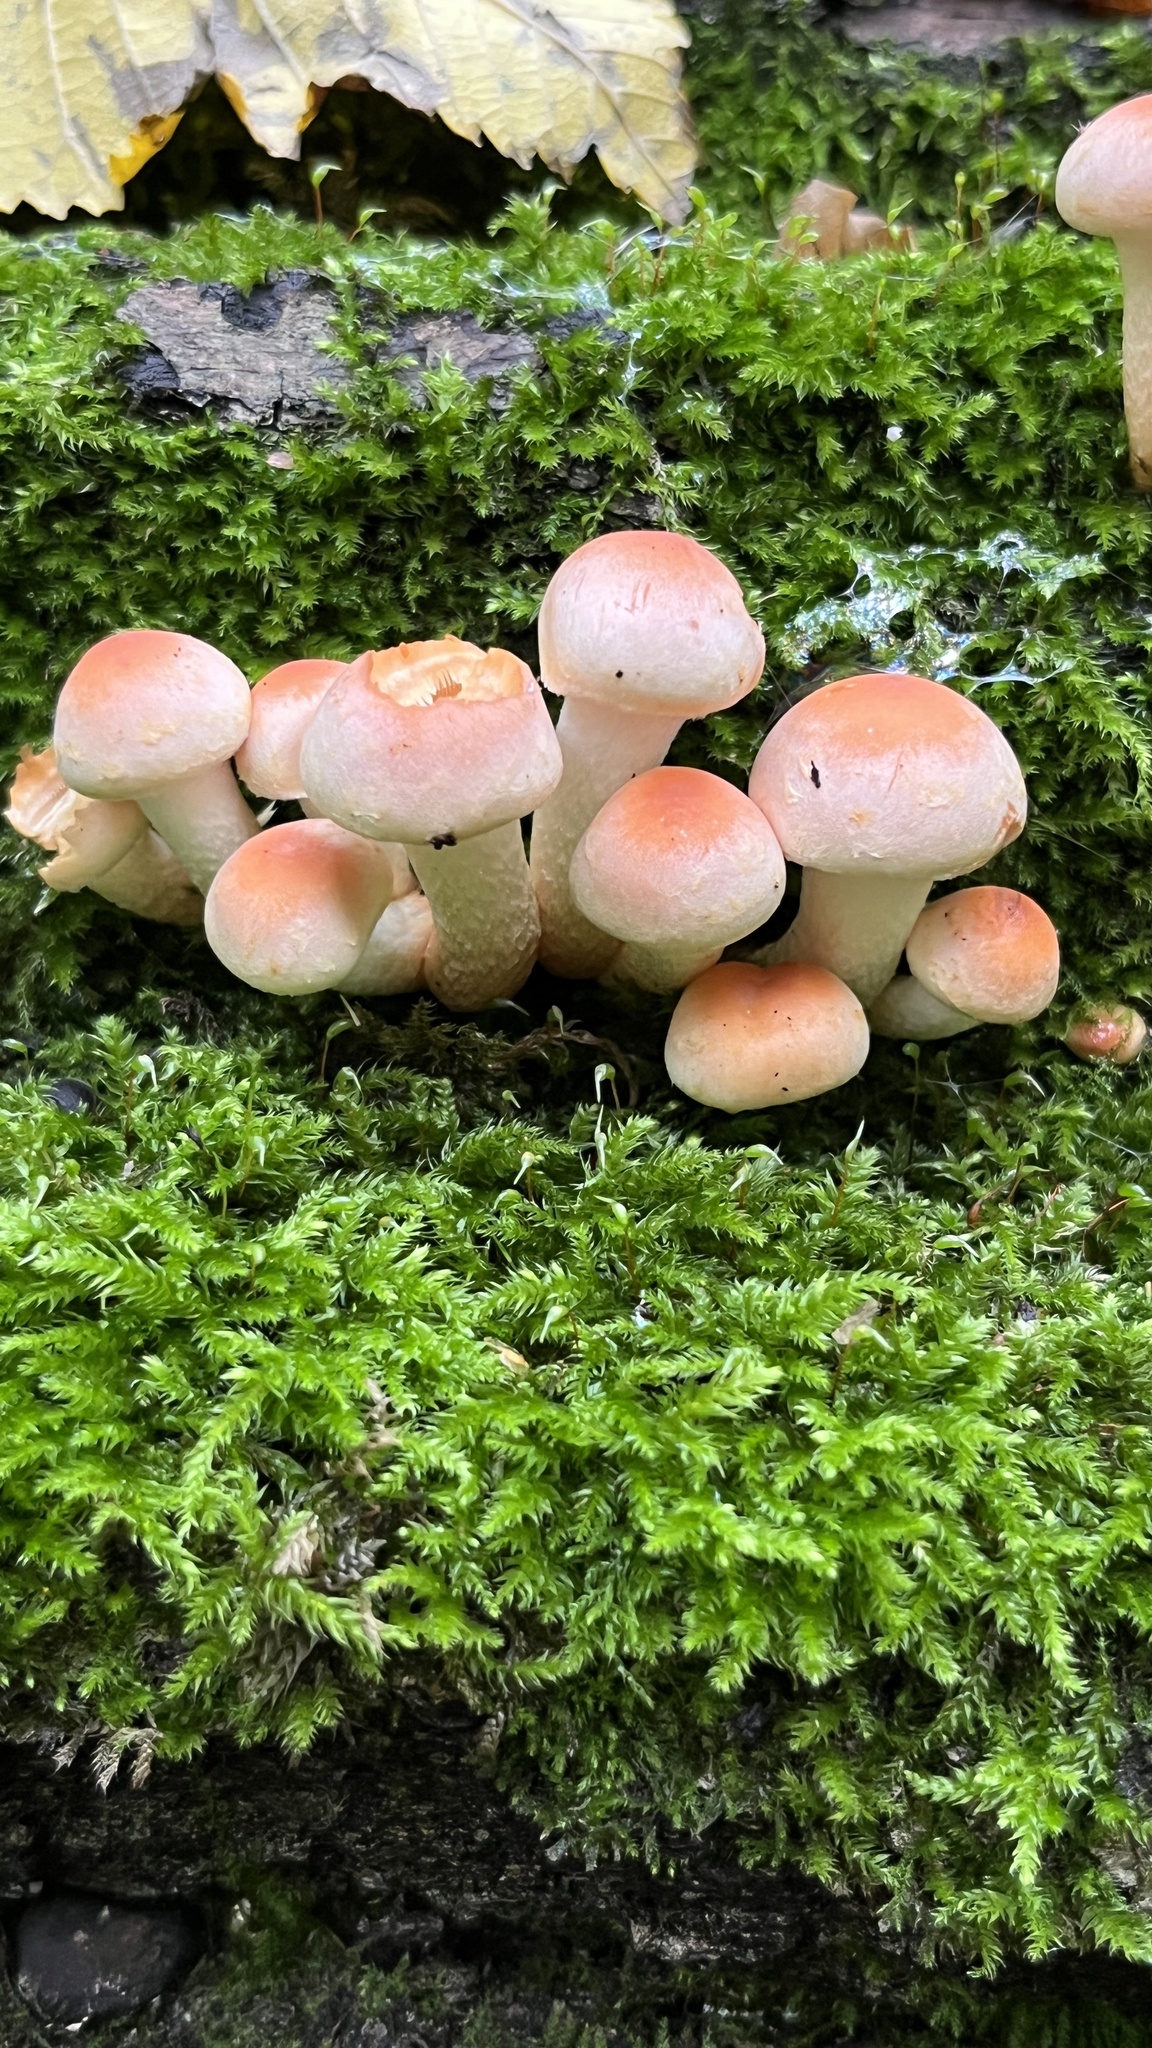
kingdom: Fungi
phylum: Basidiomycota
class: Agaricomycetes
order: Agaricales
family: Strophariaceae
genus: Hypholoma
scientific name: Hypholoma lateritium
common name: Brick caps
